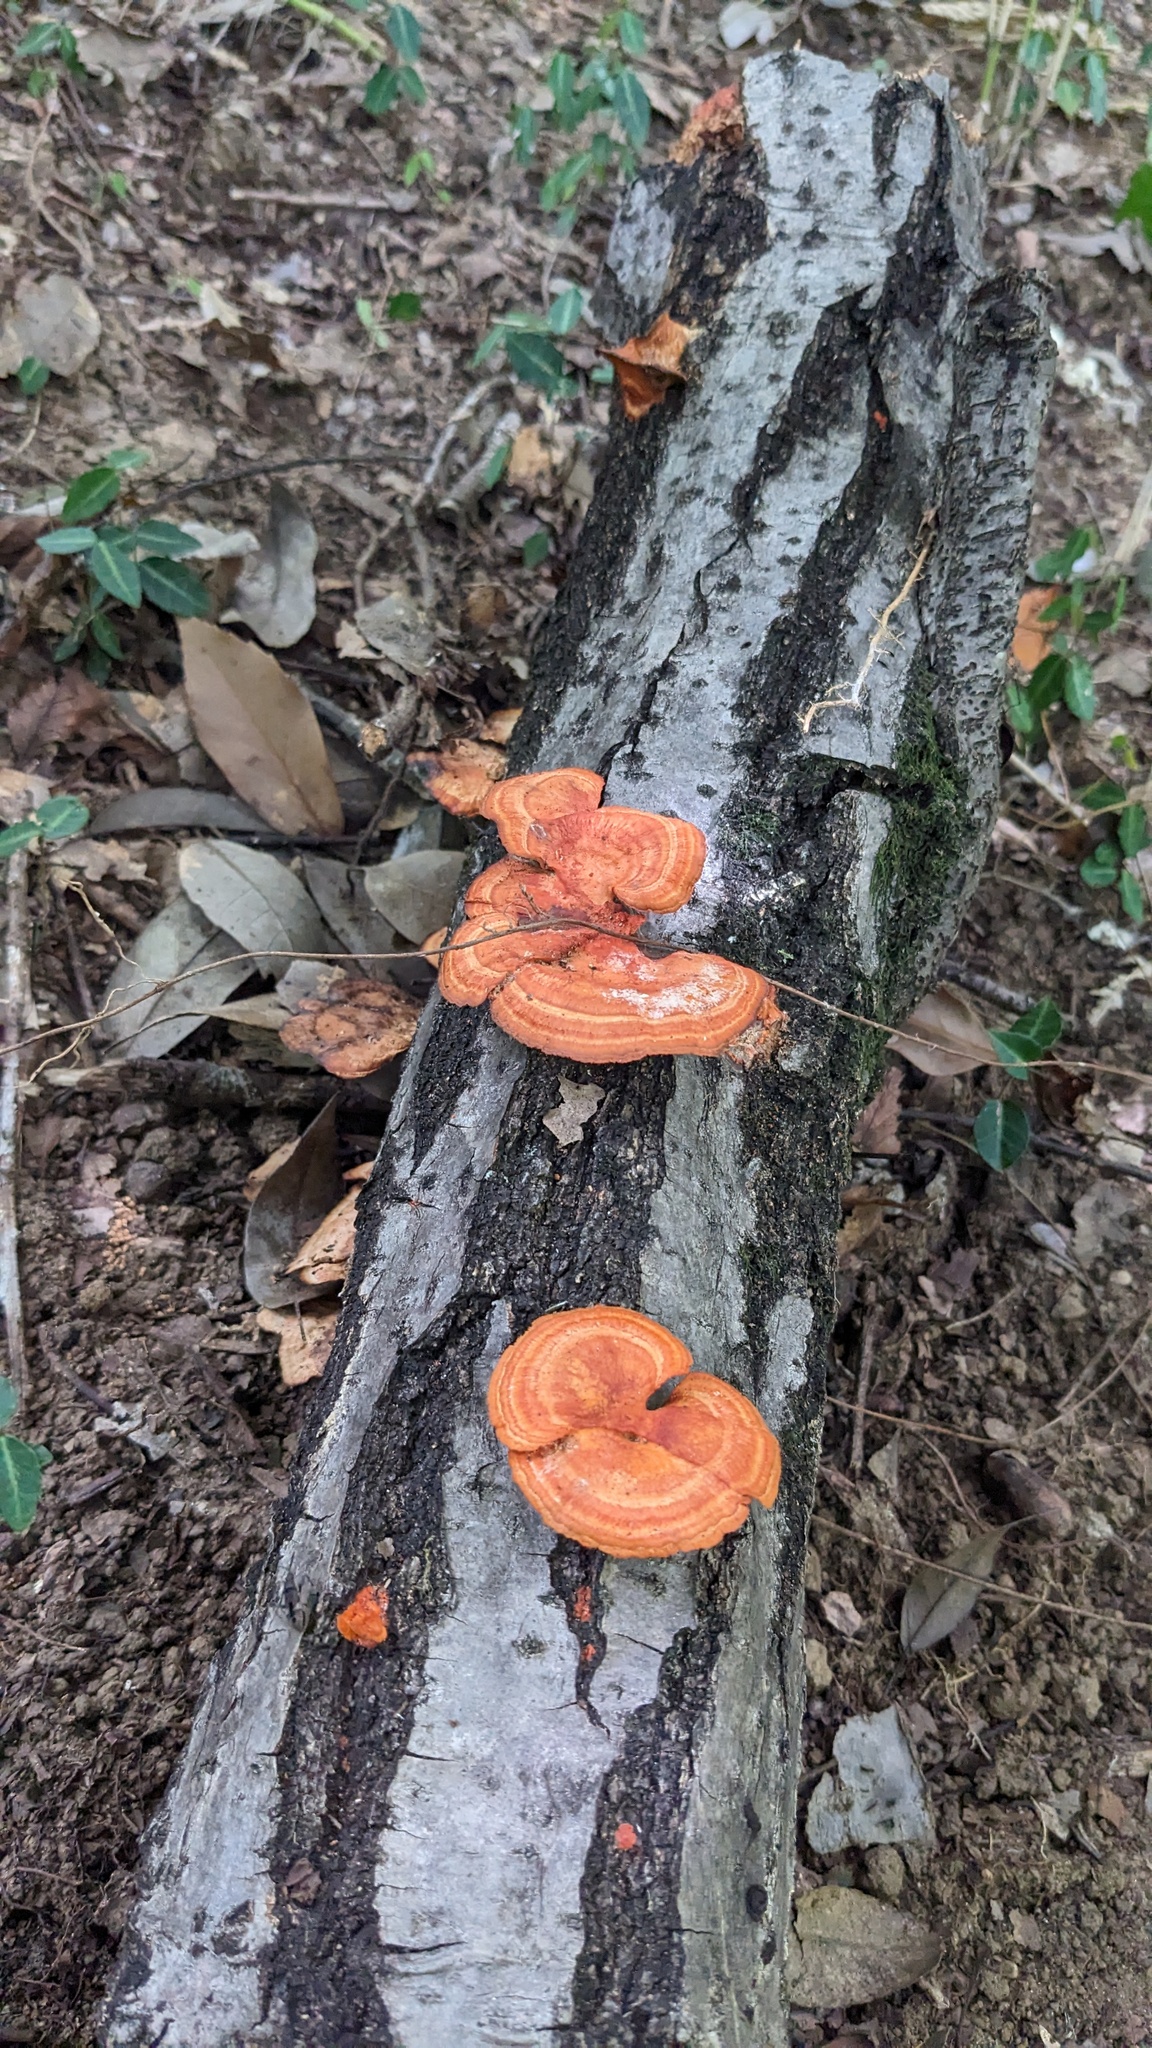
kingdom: Fungi
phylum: Basidiomycota
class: Agaricomycetes
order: Polyporales
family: Polyporaceae
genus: Trametes
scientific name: Trametes coccinea
